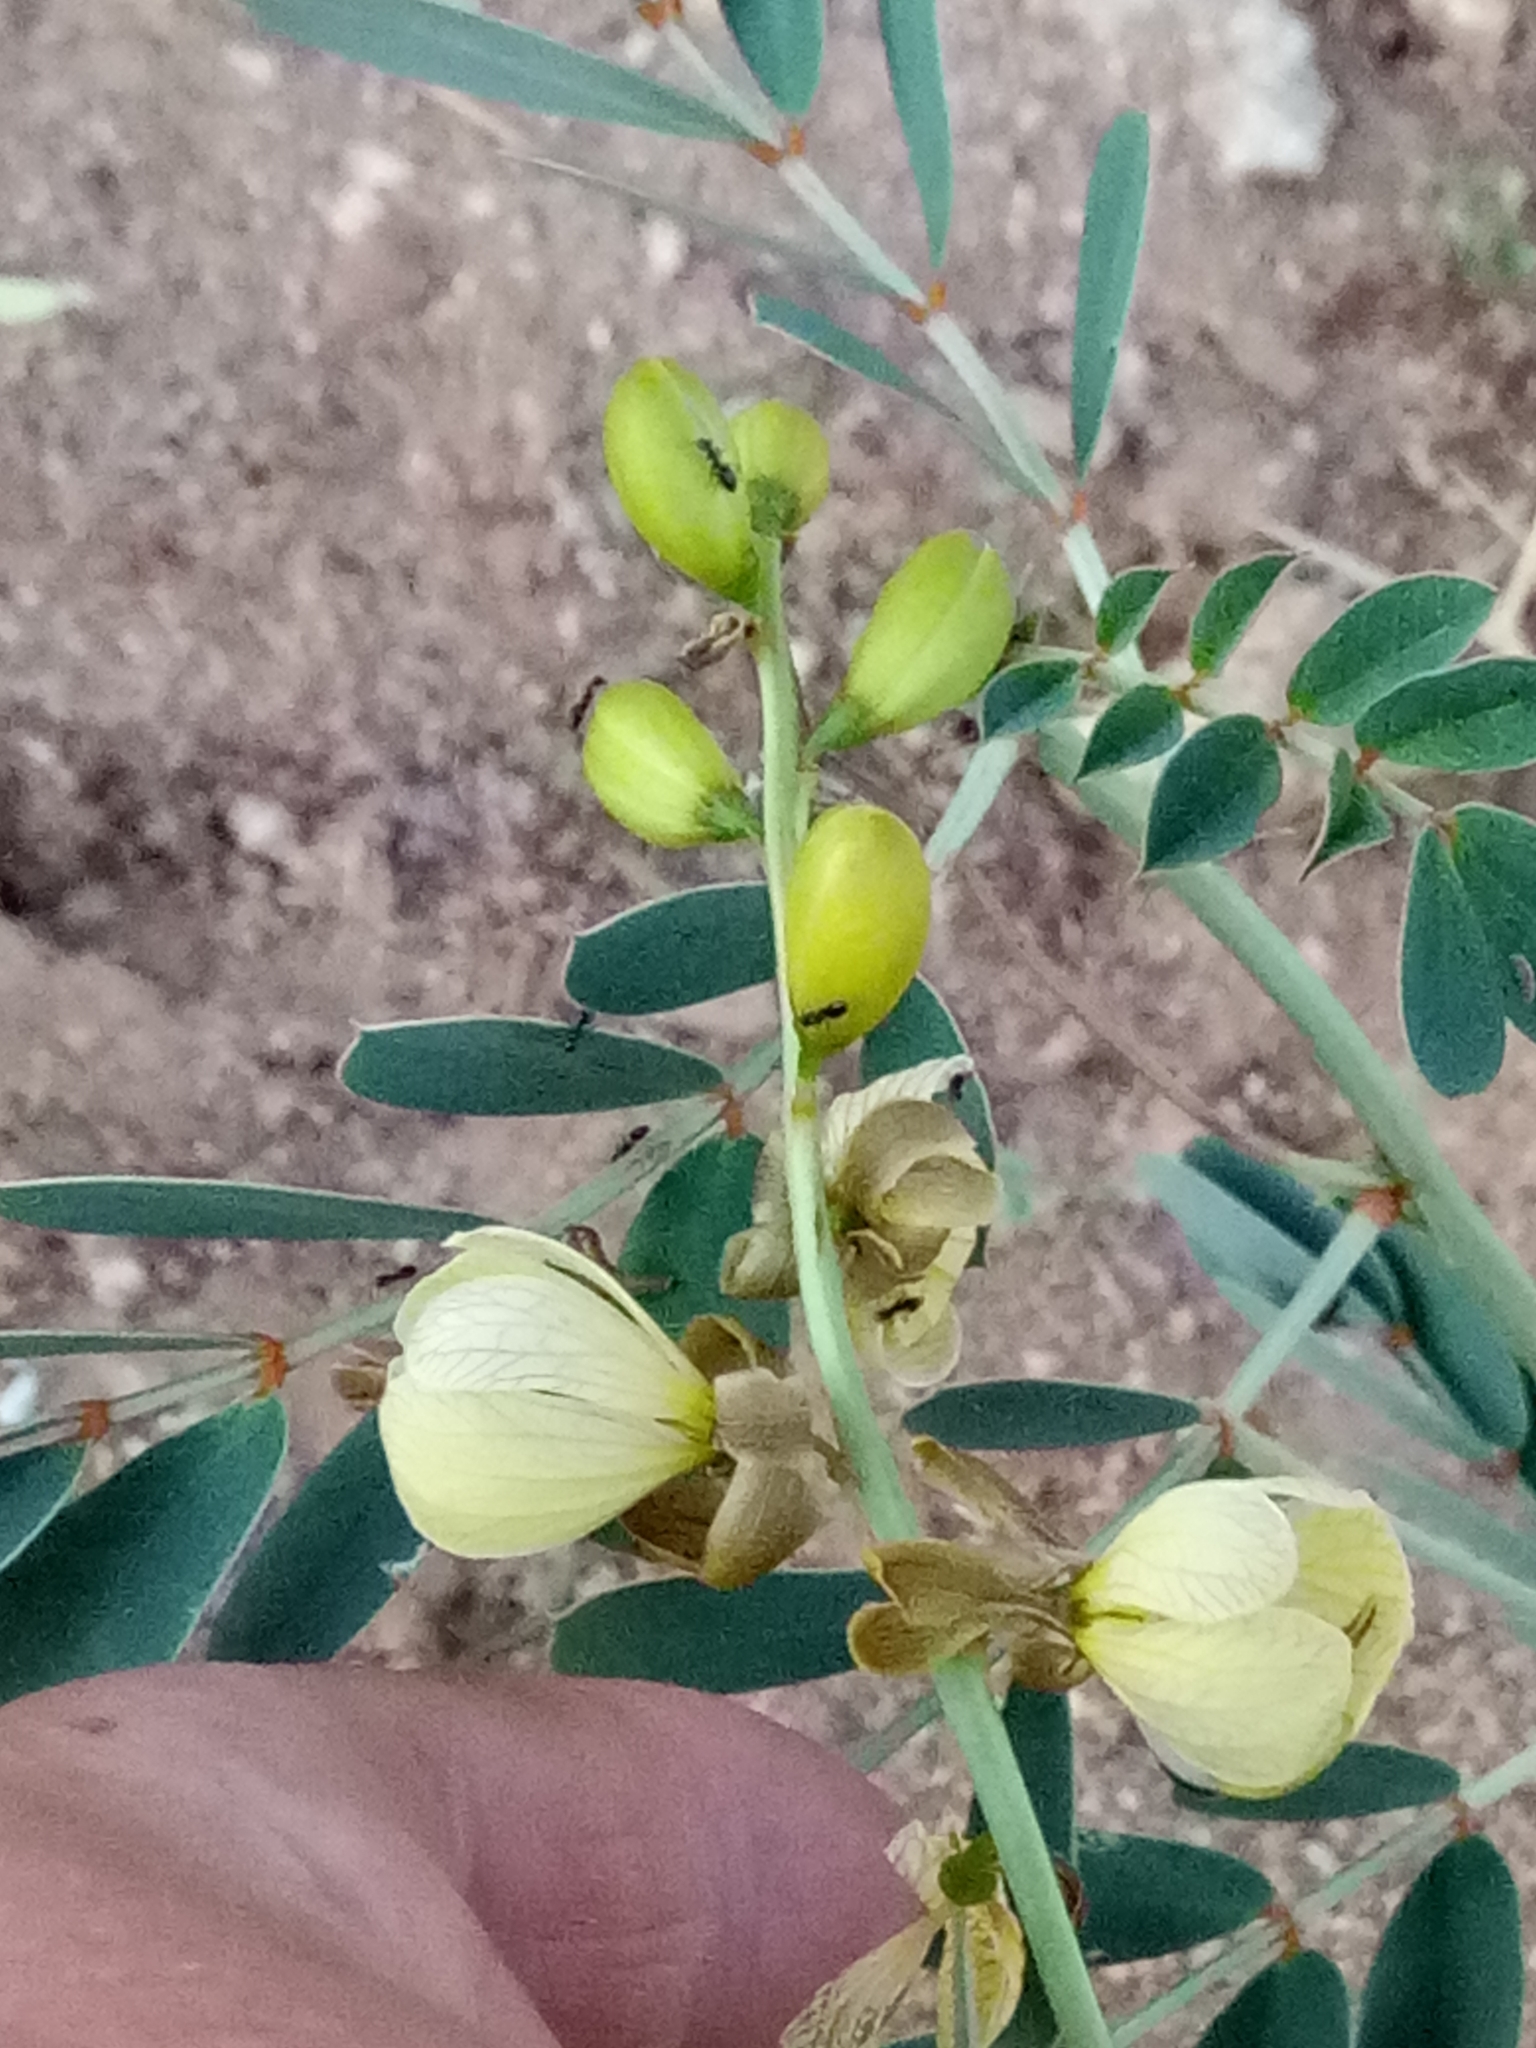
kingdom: Plantae
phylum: Tracheophyta
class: Magnoliopsida
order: Fabales
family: Fabaceae
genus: Senna
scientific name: Senna italica
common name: Port royal senna
